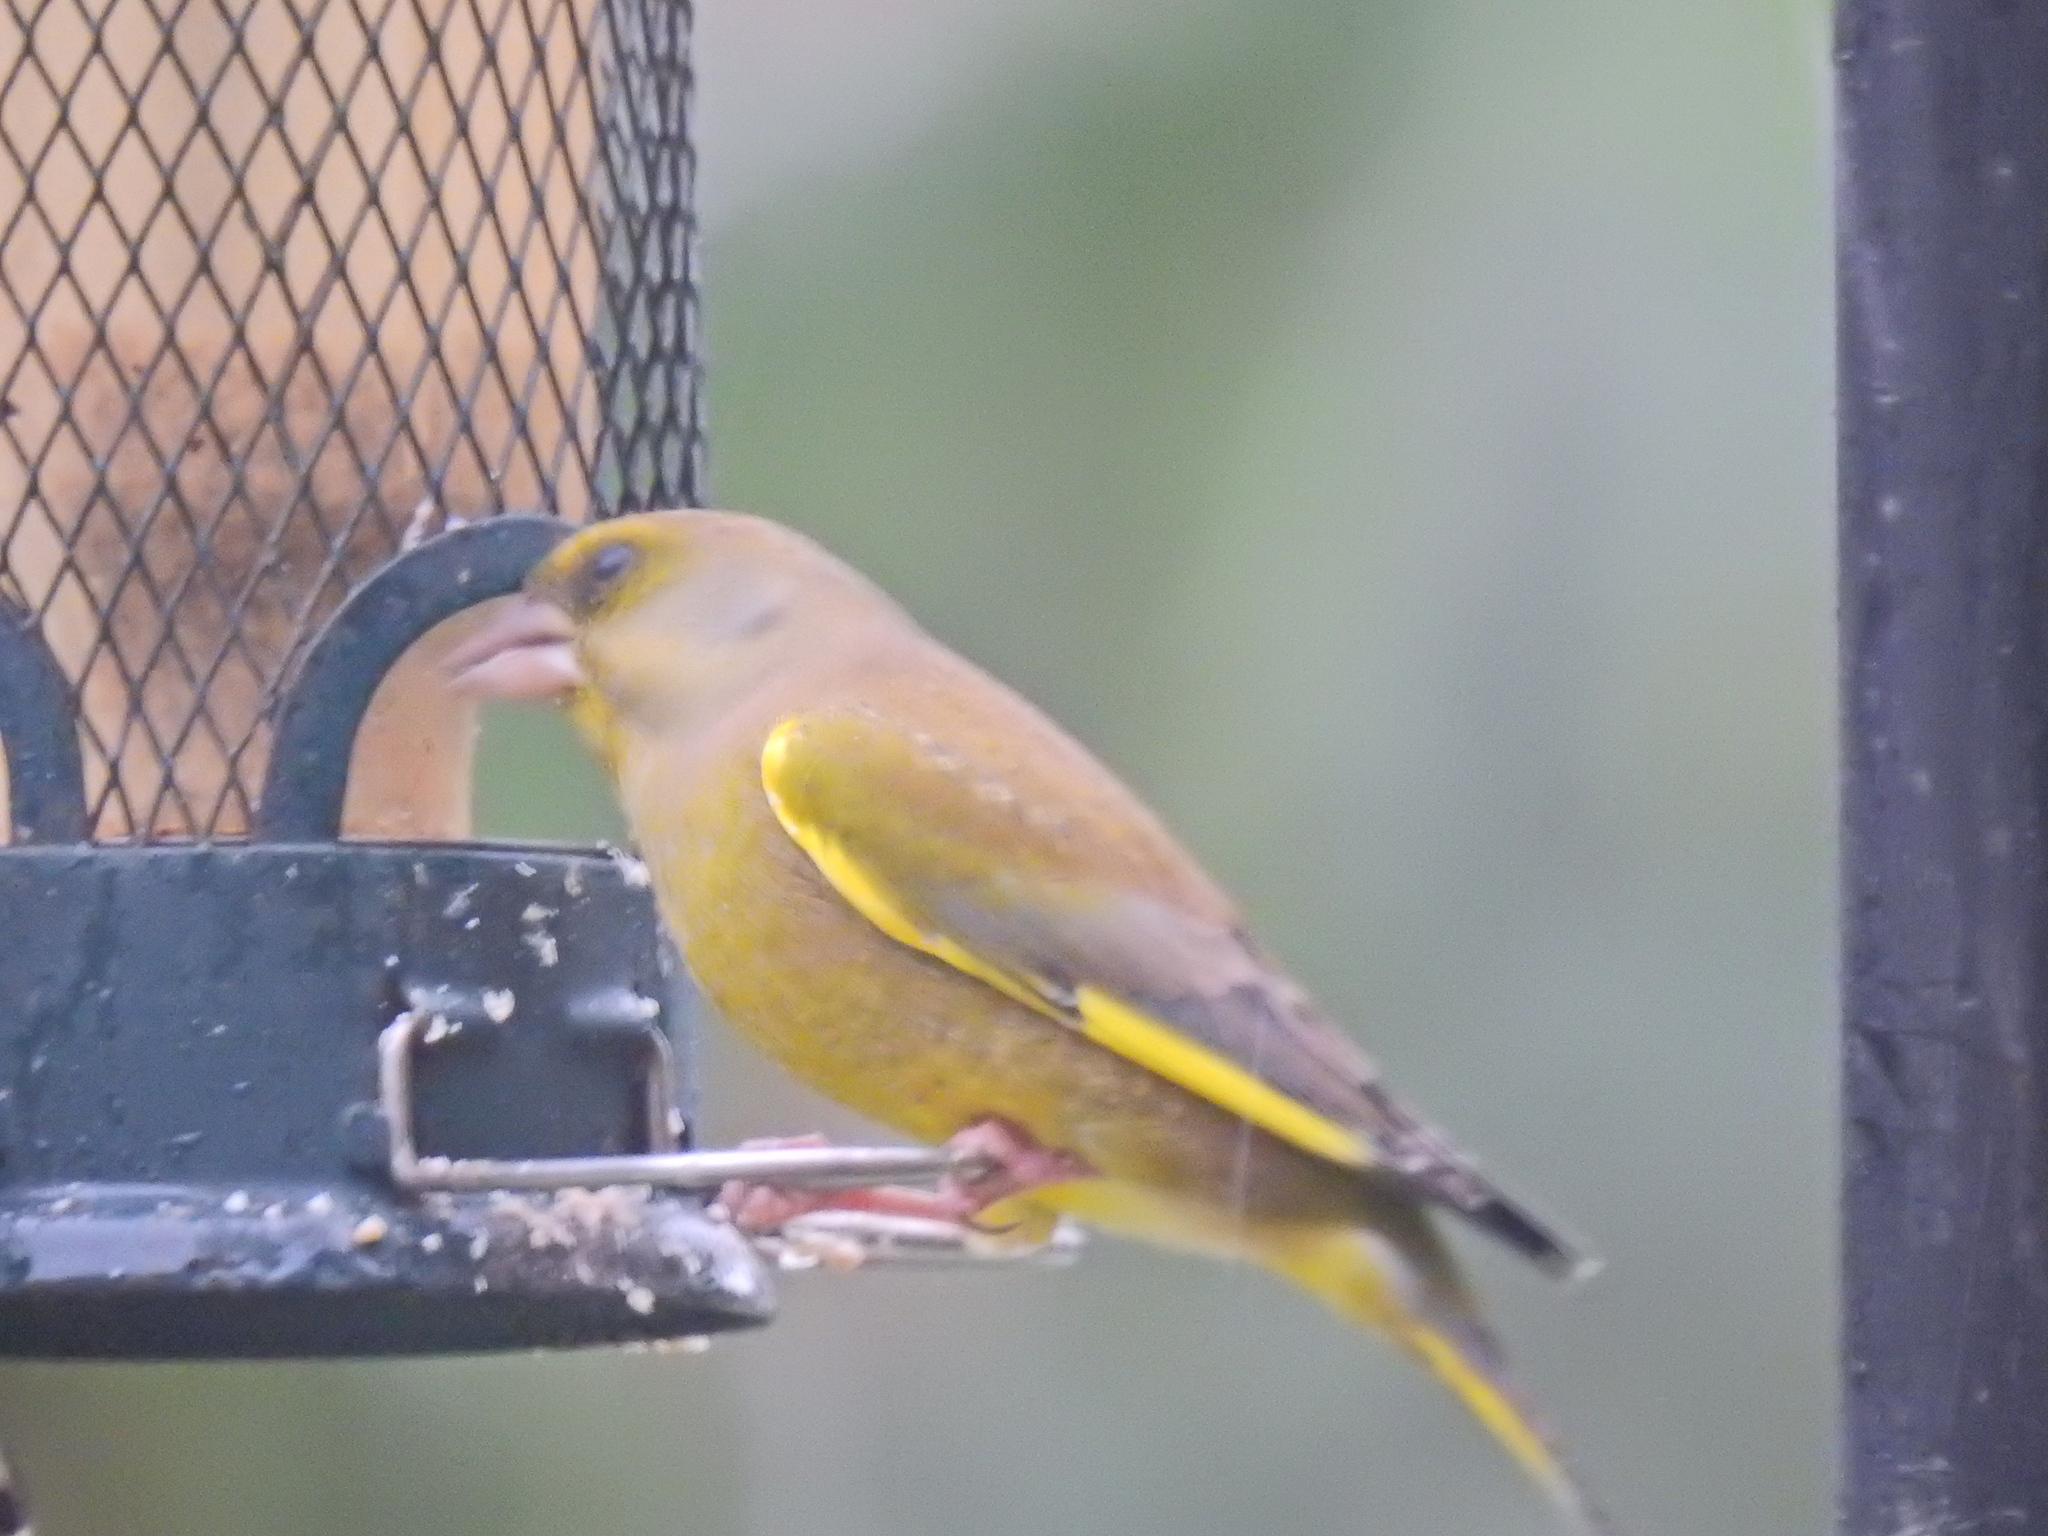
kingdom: Plantae
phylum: Tracheophyta
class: Liliopsida
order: Poales
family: Poaceae
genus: Chloris
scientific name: Chloris chloris
